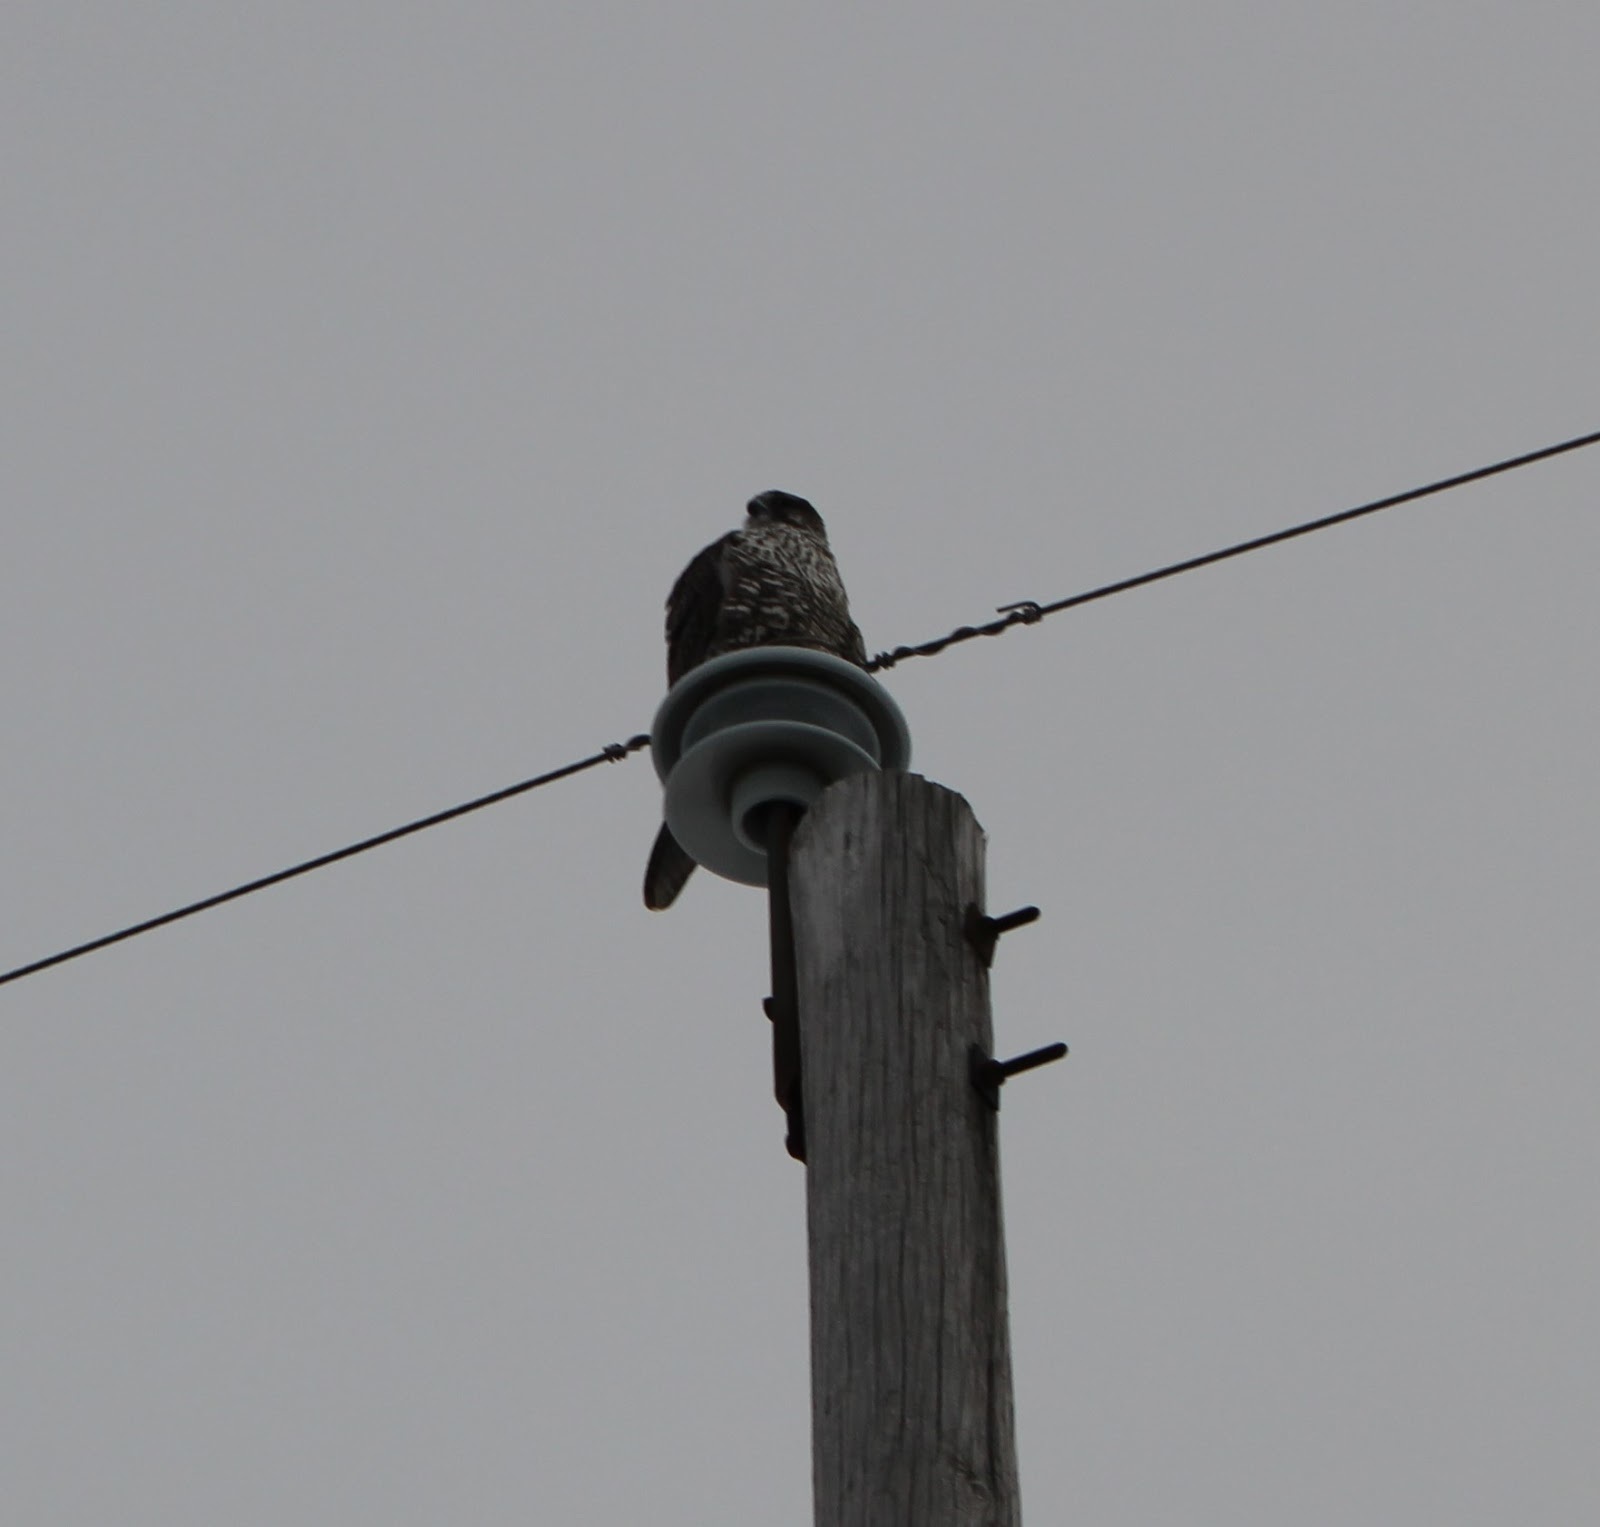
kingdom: Animalia
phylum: Chordata
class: Aves
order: Falconiformes
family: Falconidae
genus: Falco
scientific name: Falco rusticolus
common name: Gyrfalcon
